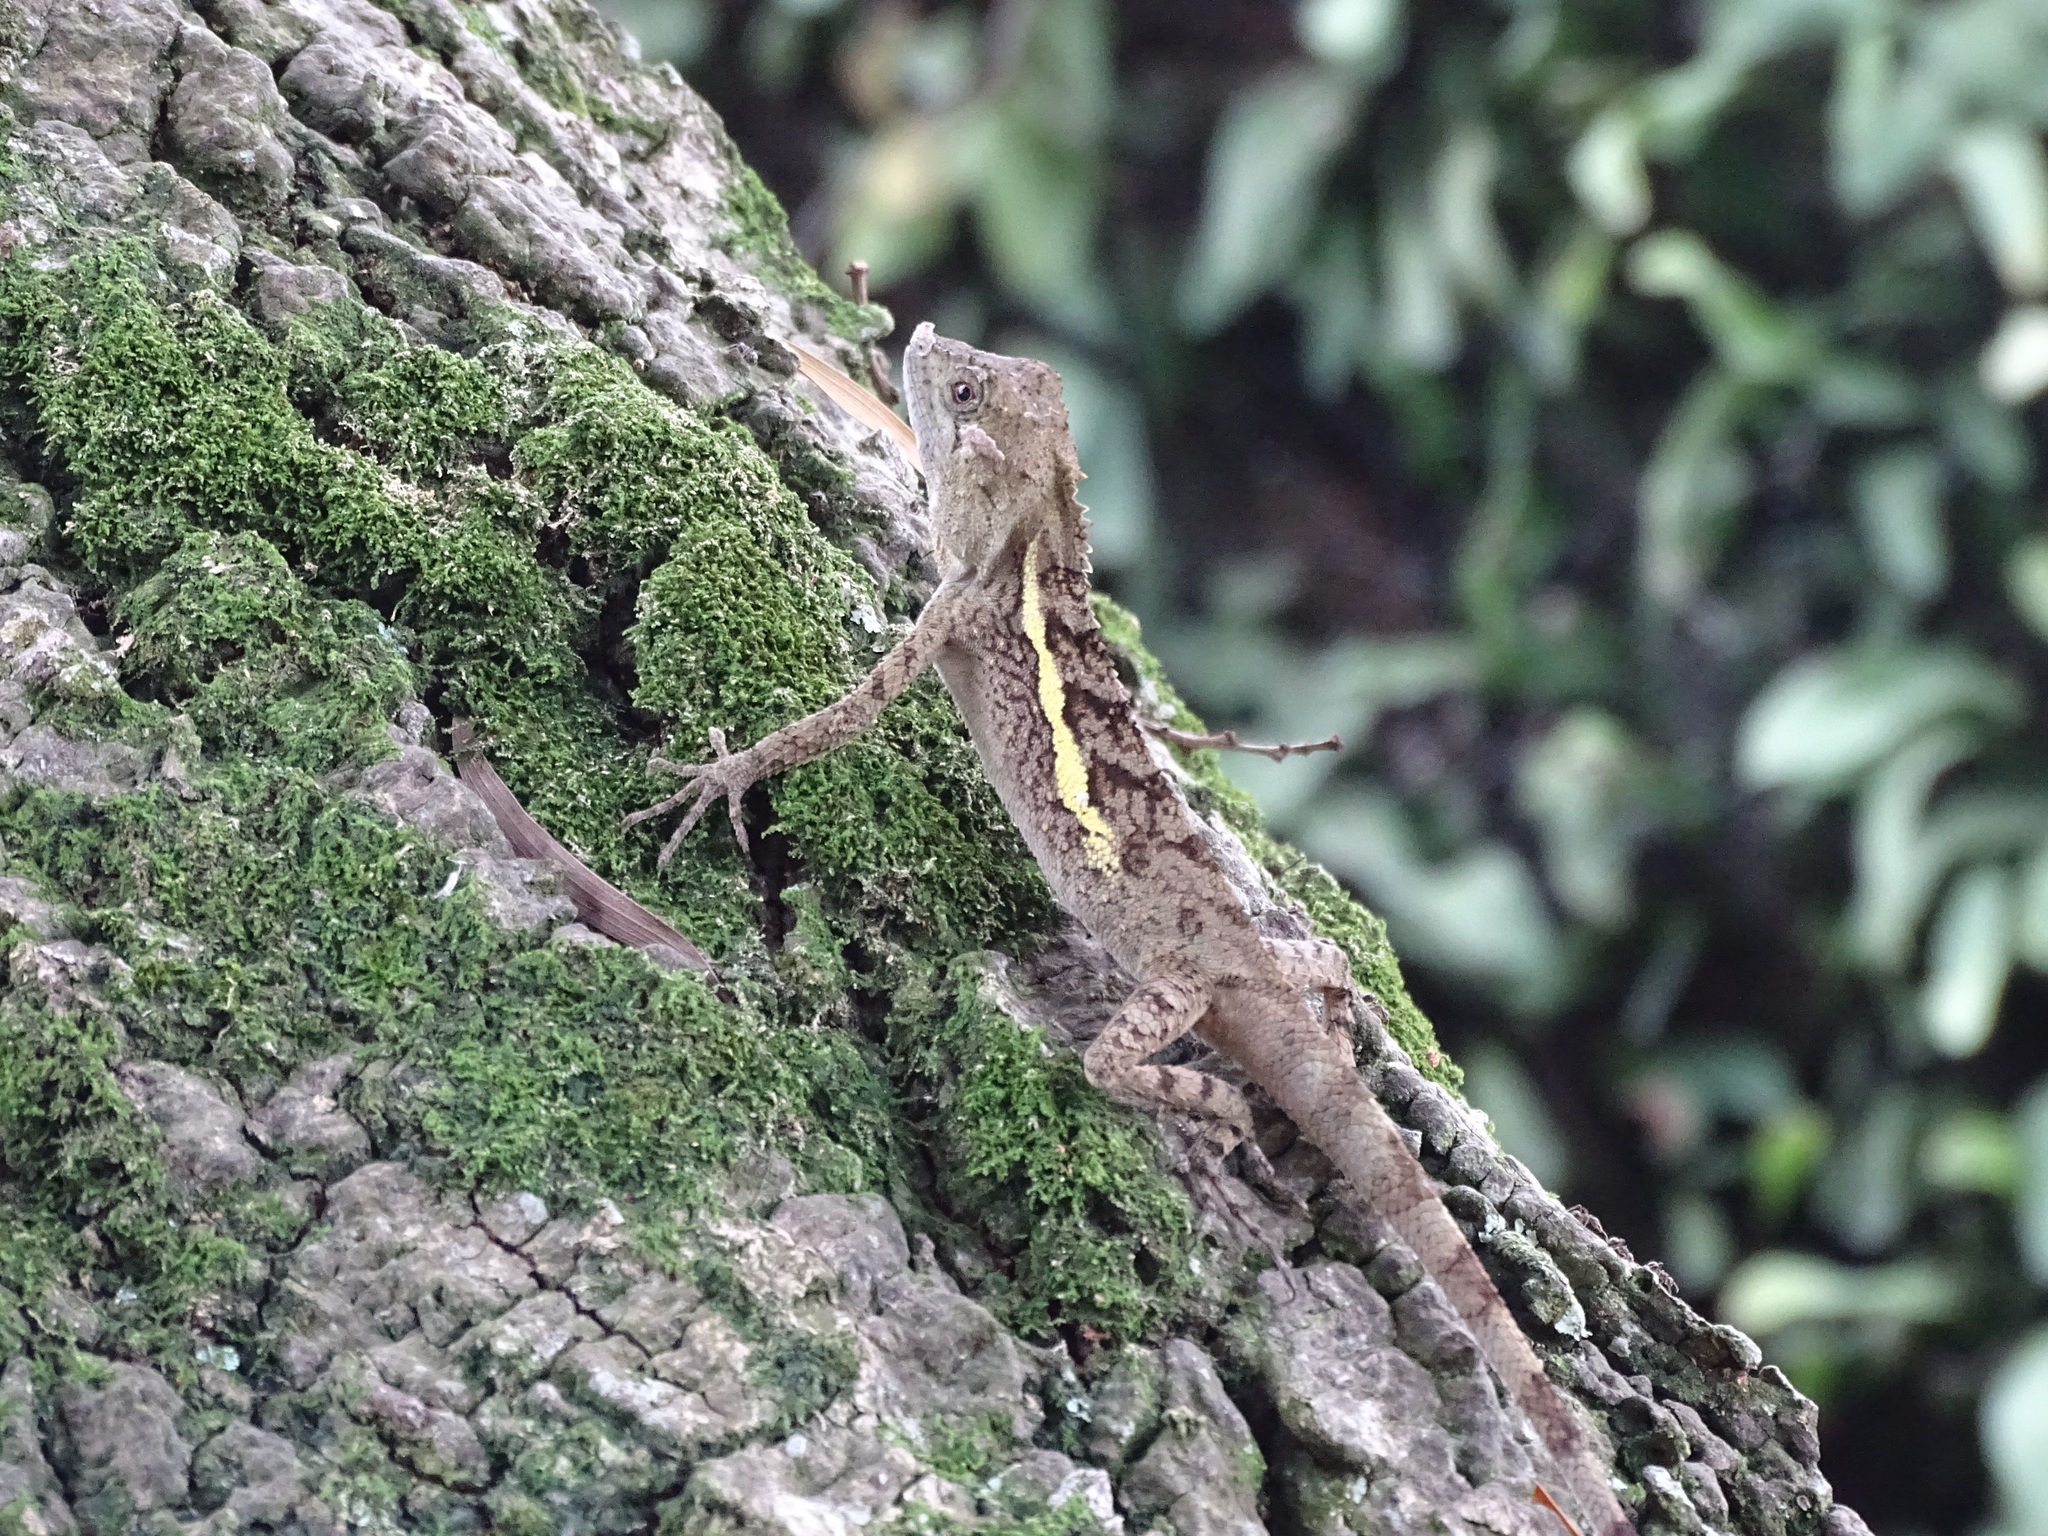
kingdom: Animalia
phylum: Chordata
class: Squamata
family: Agamidae
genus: Diploderma
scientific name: Diploderma swinhonis
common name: Taiwan japalure
